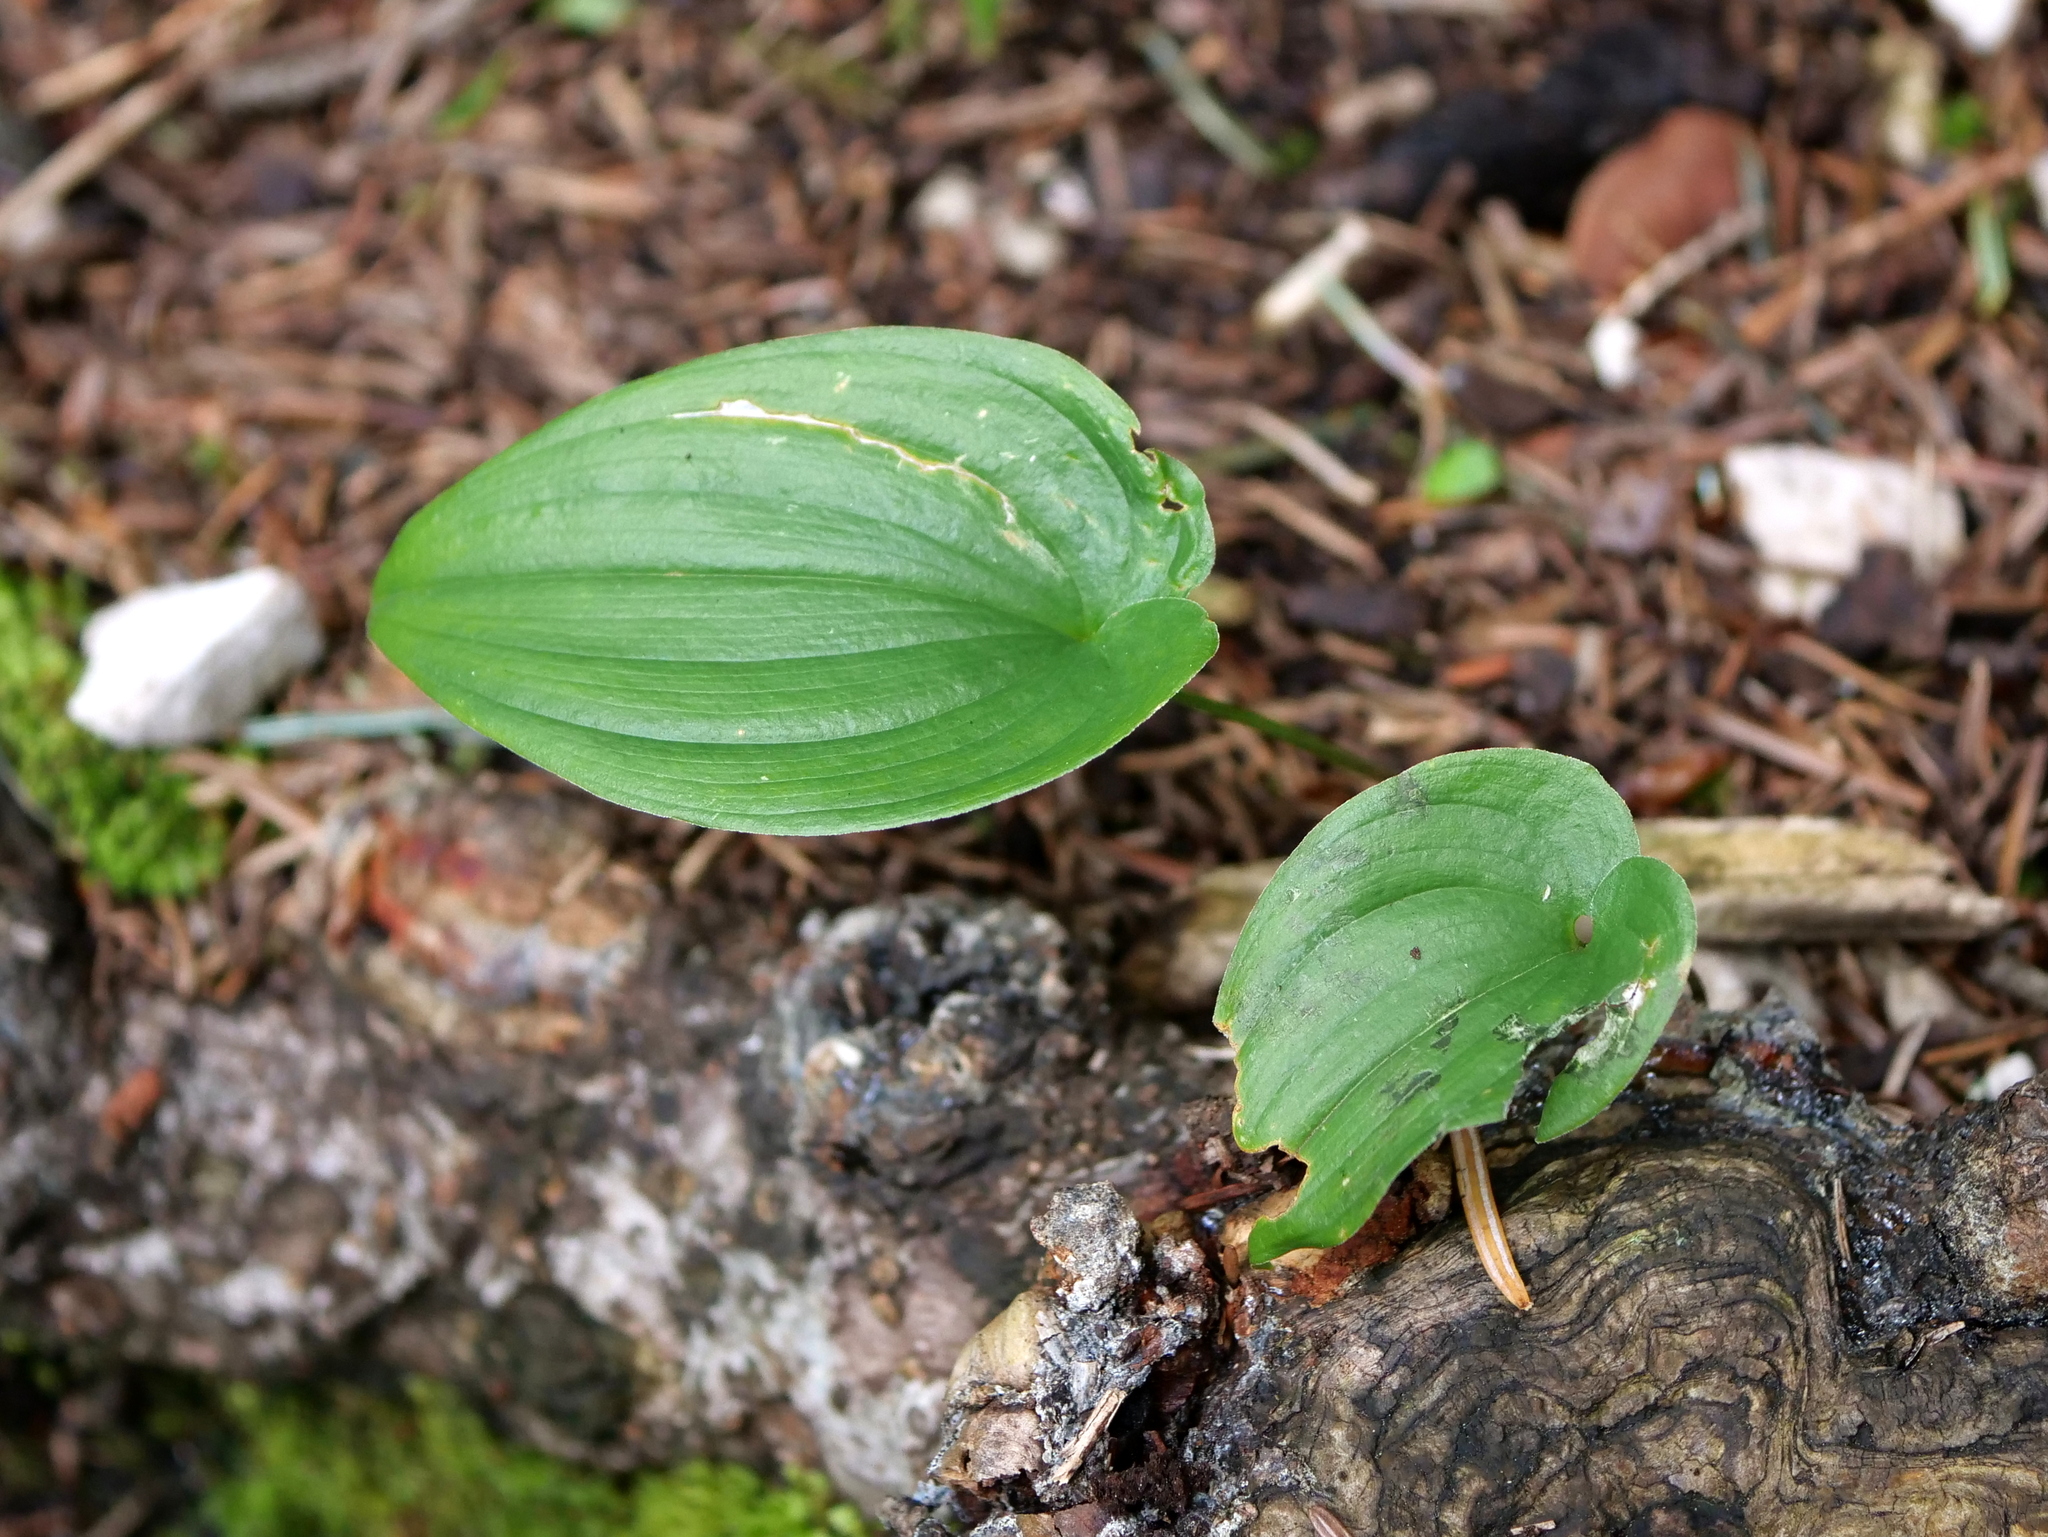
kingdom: Plantae
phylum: Tracheophyta
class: Liliopsida
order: Asparagales
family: Asparagaceae
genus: Maianthemum
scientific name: Maianthemum bifolium
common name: May lily
